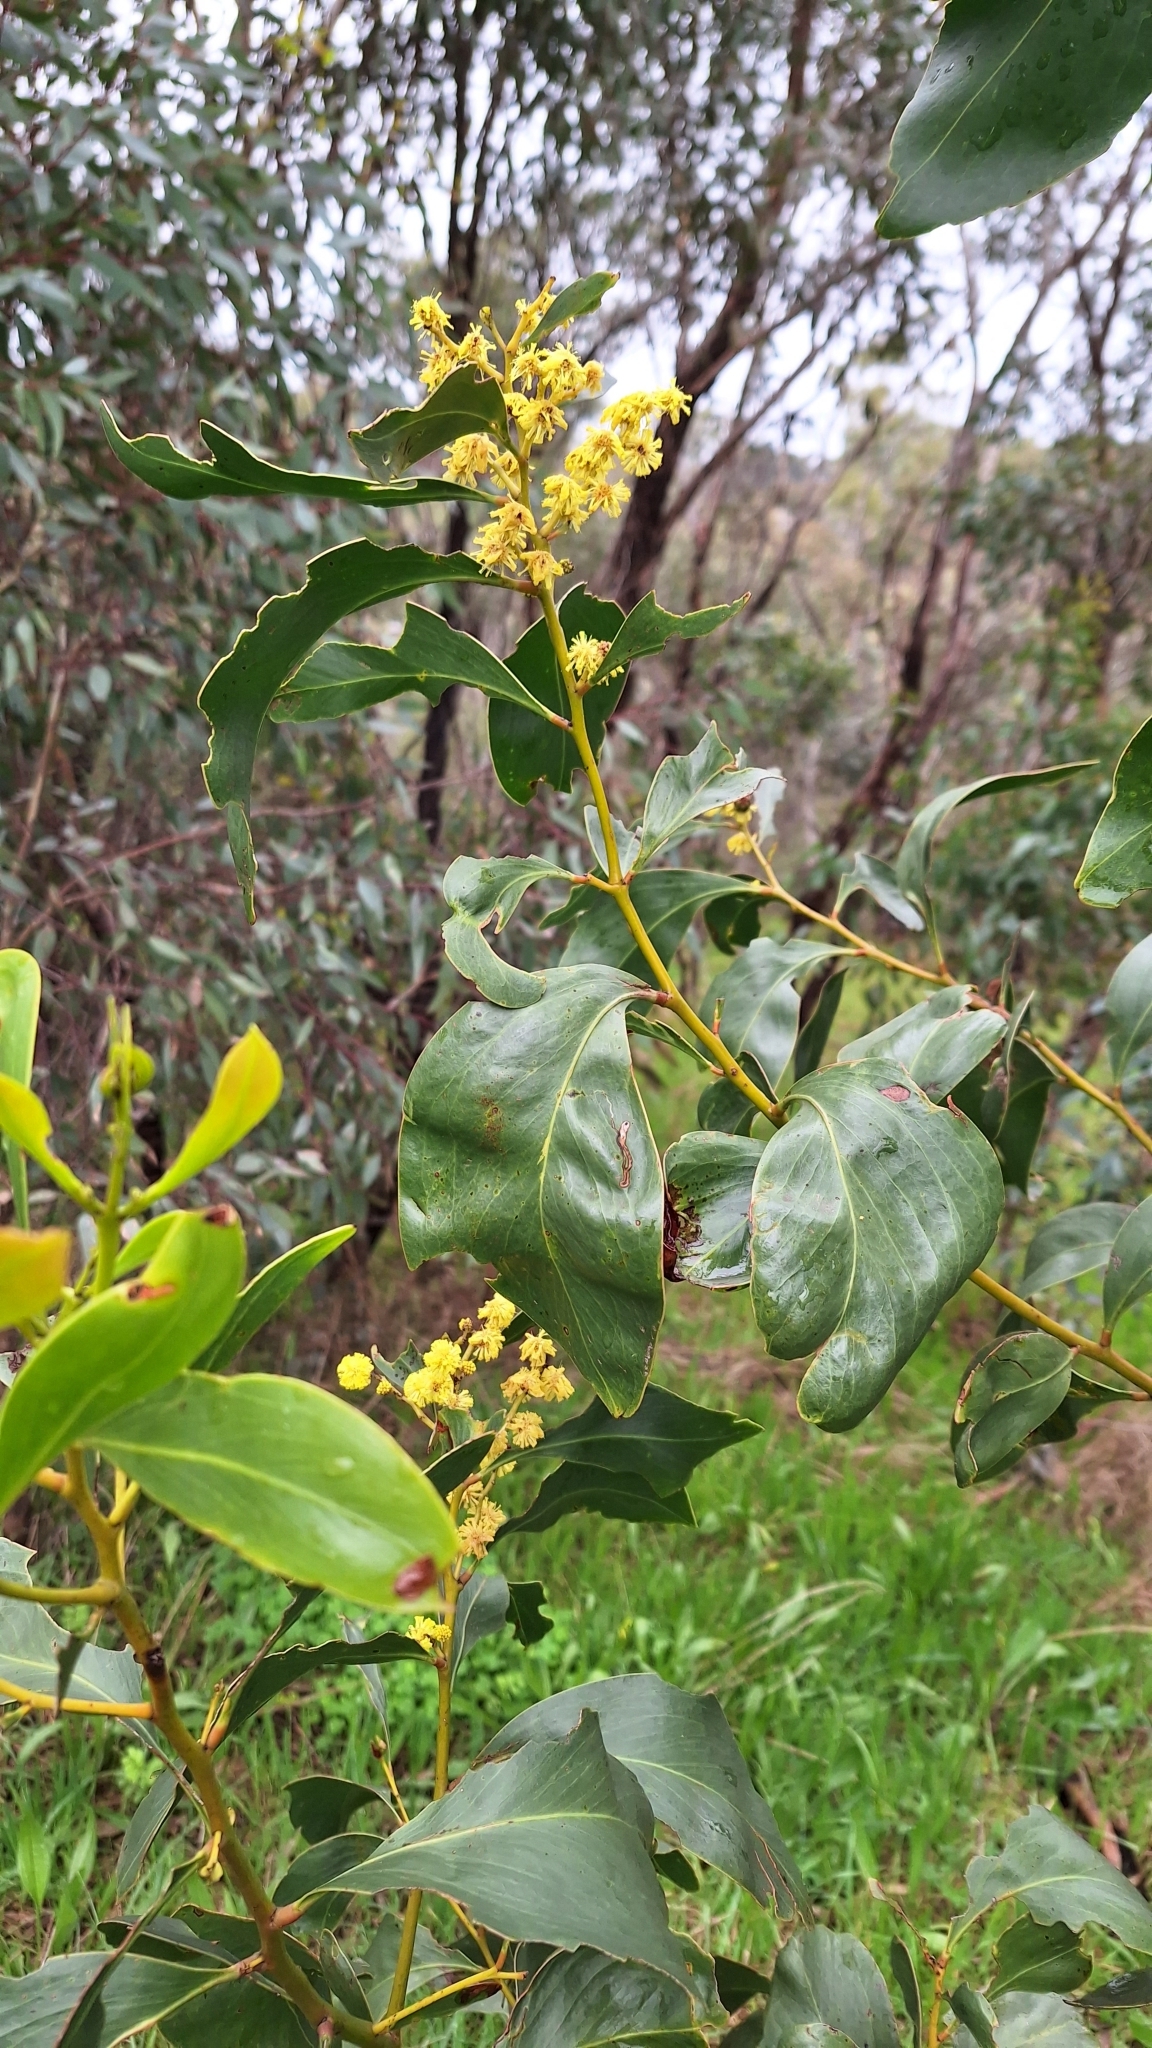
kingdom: Plantae
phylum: Tracheophyta
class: Magnoliopsida
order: Fabales
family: Fabaceae
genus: Acacia
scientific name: Acacia pycnantha
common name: Golden wattle
